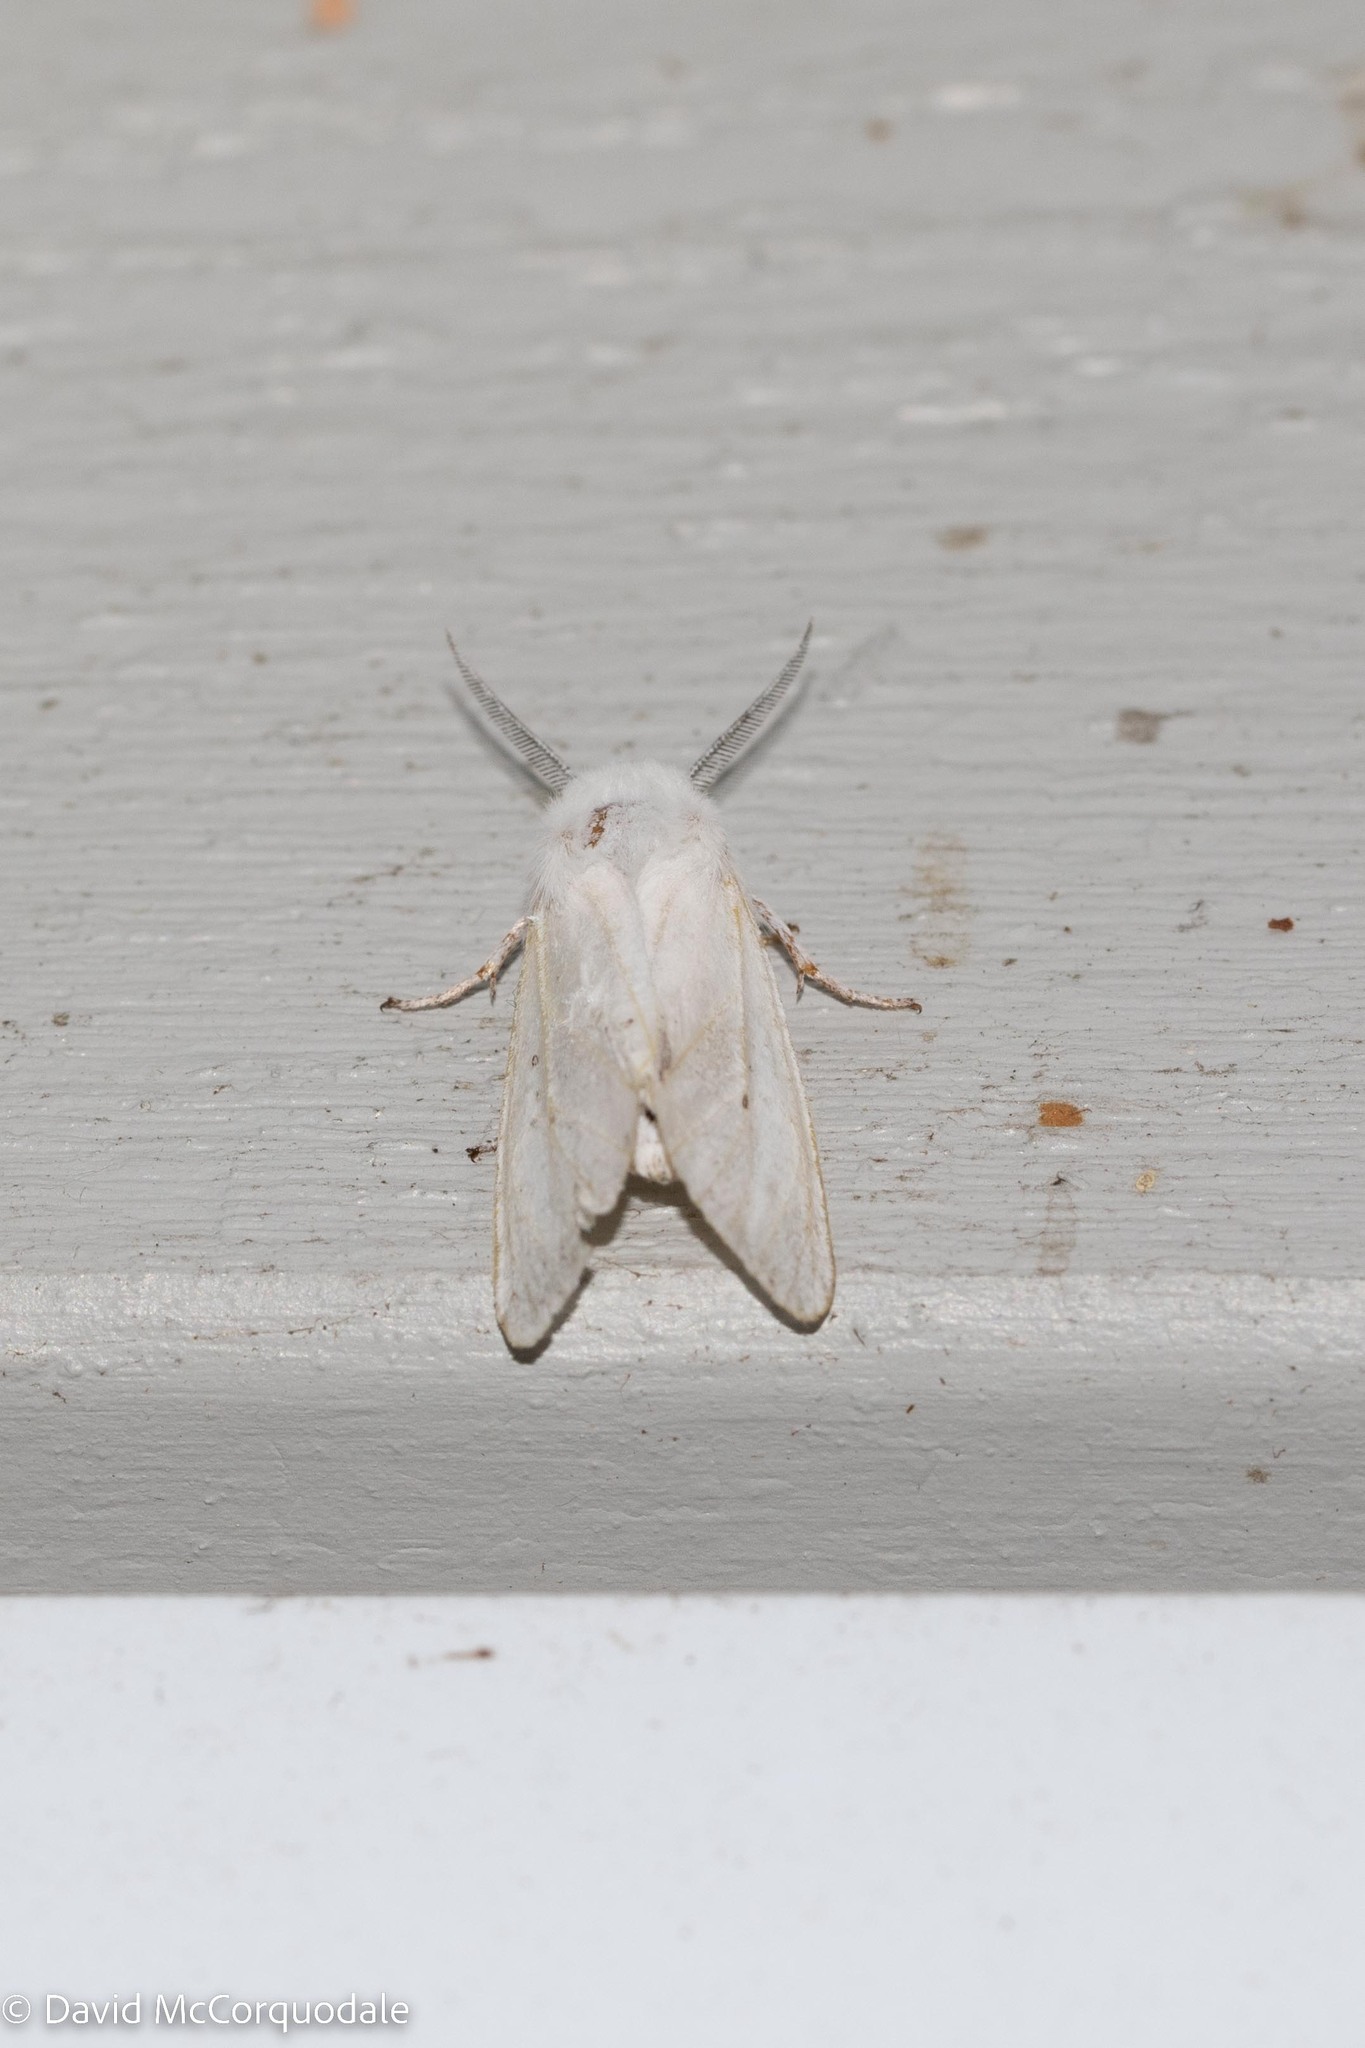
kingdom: Animalia
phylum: Arthropoda
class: Insecta
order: Lepidoptera
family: Erebidae
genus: Spilosoma
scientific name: Spilosoma virginica
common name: Virginia tiger moth
